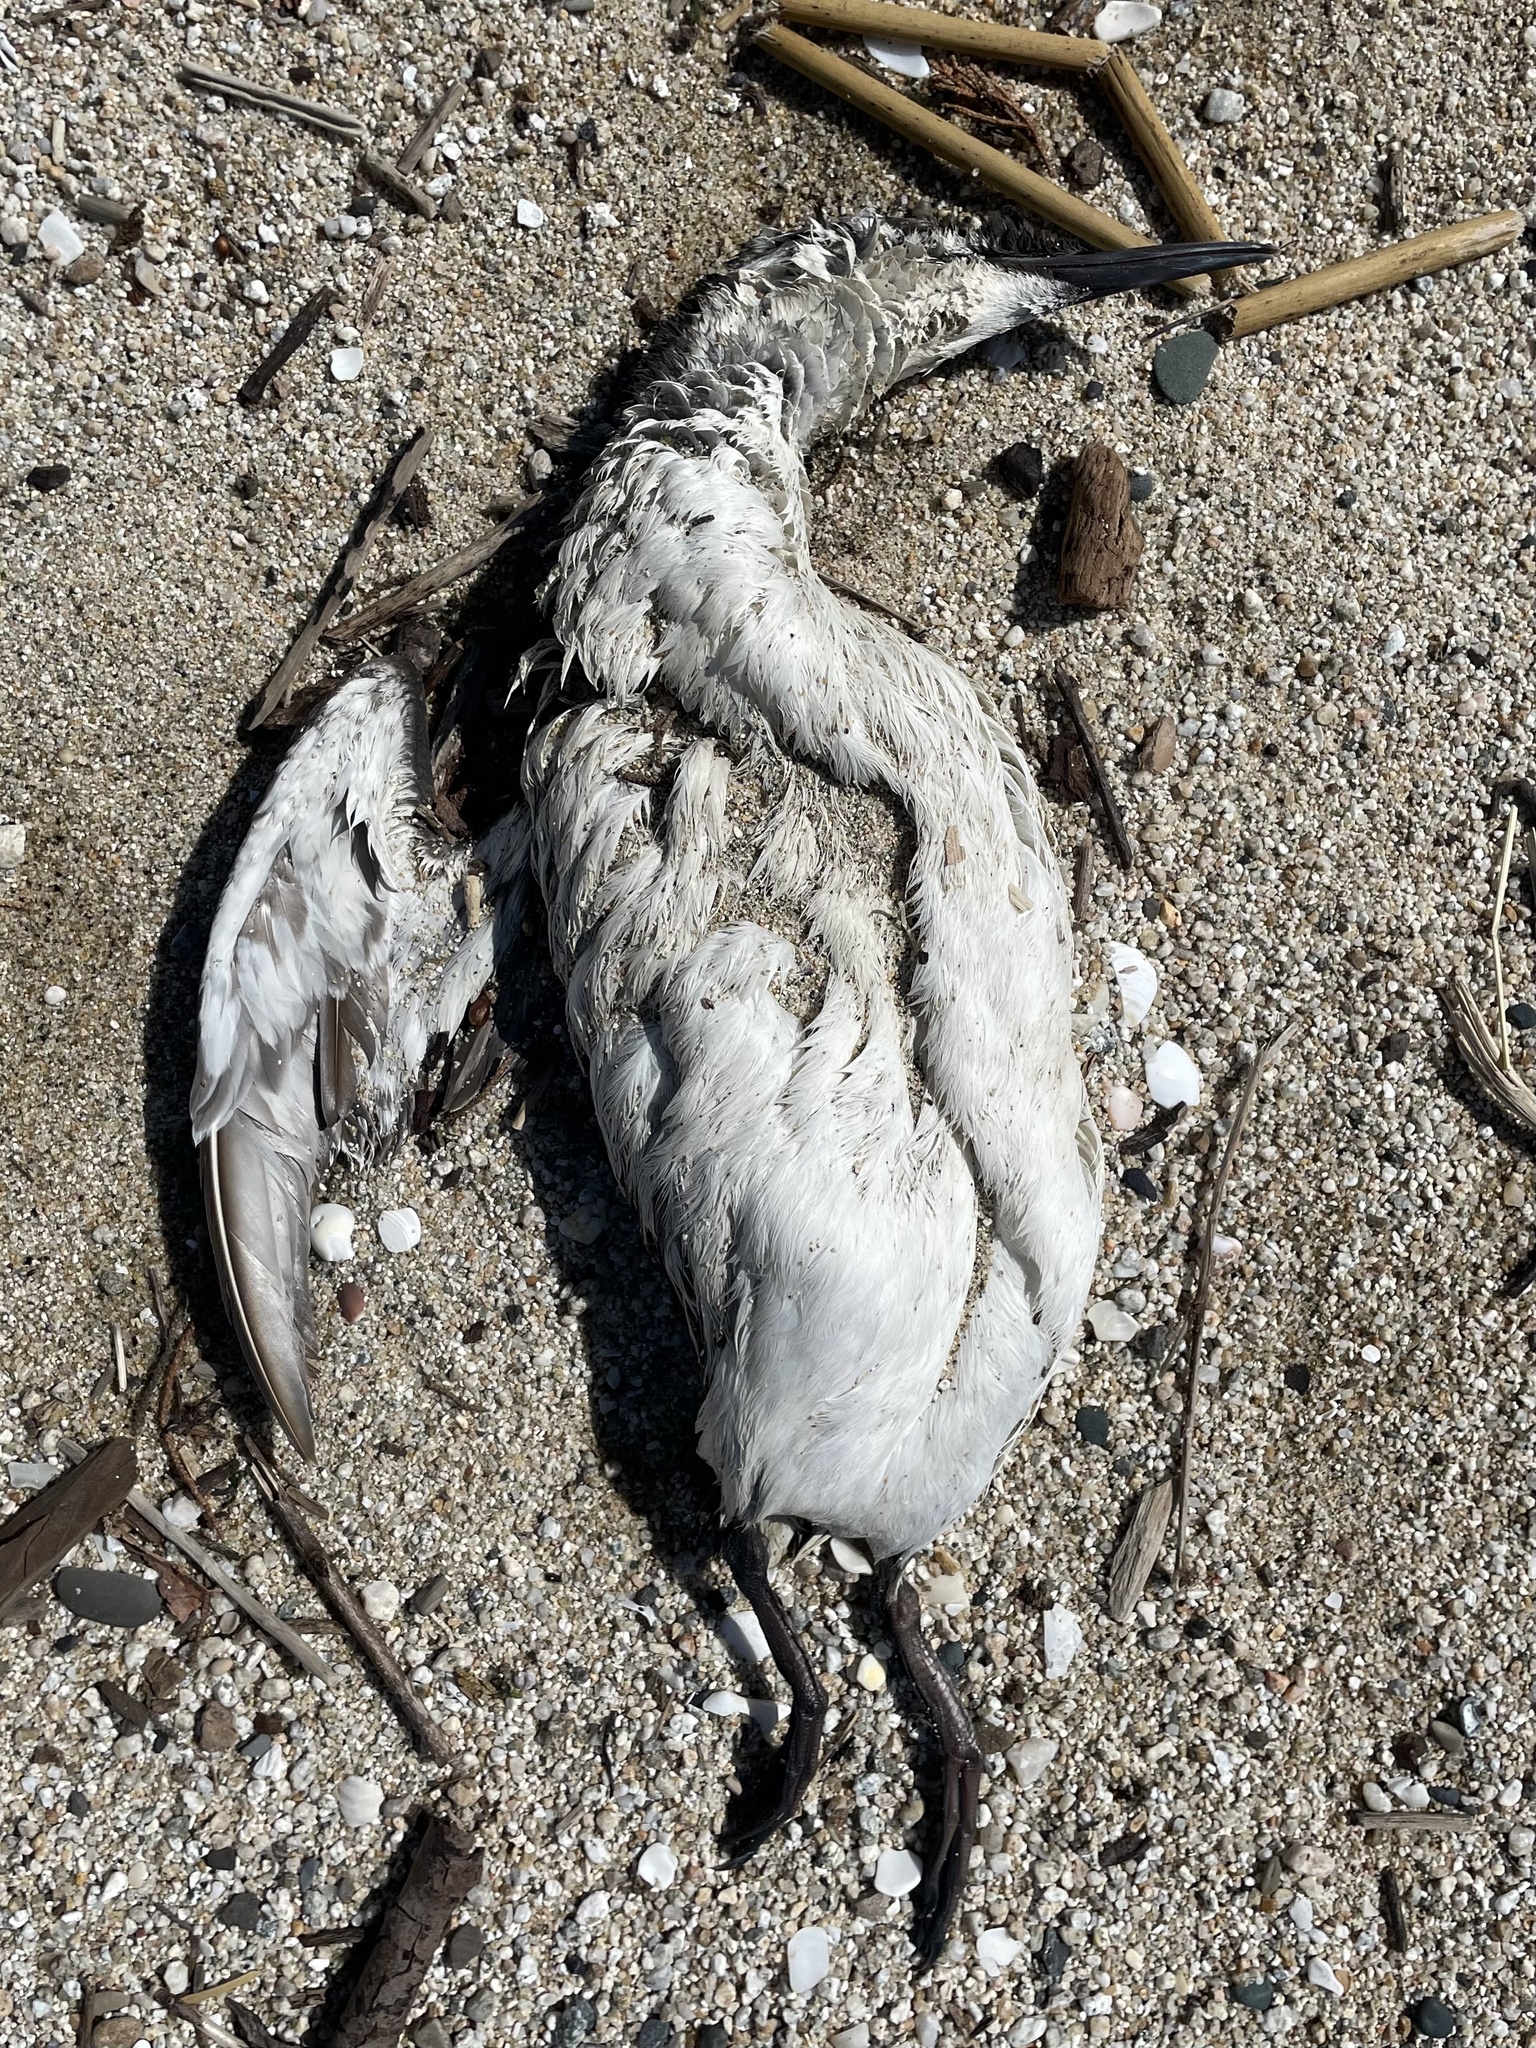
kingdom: Animalia
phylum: Chordata
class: Aves
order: Charadriiformes
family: Alcidae
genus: Uria
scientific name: Uria aalge
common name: Common murre
